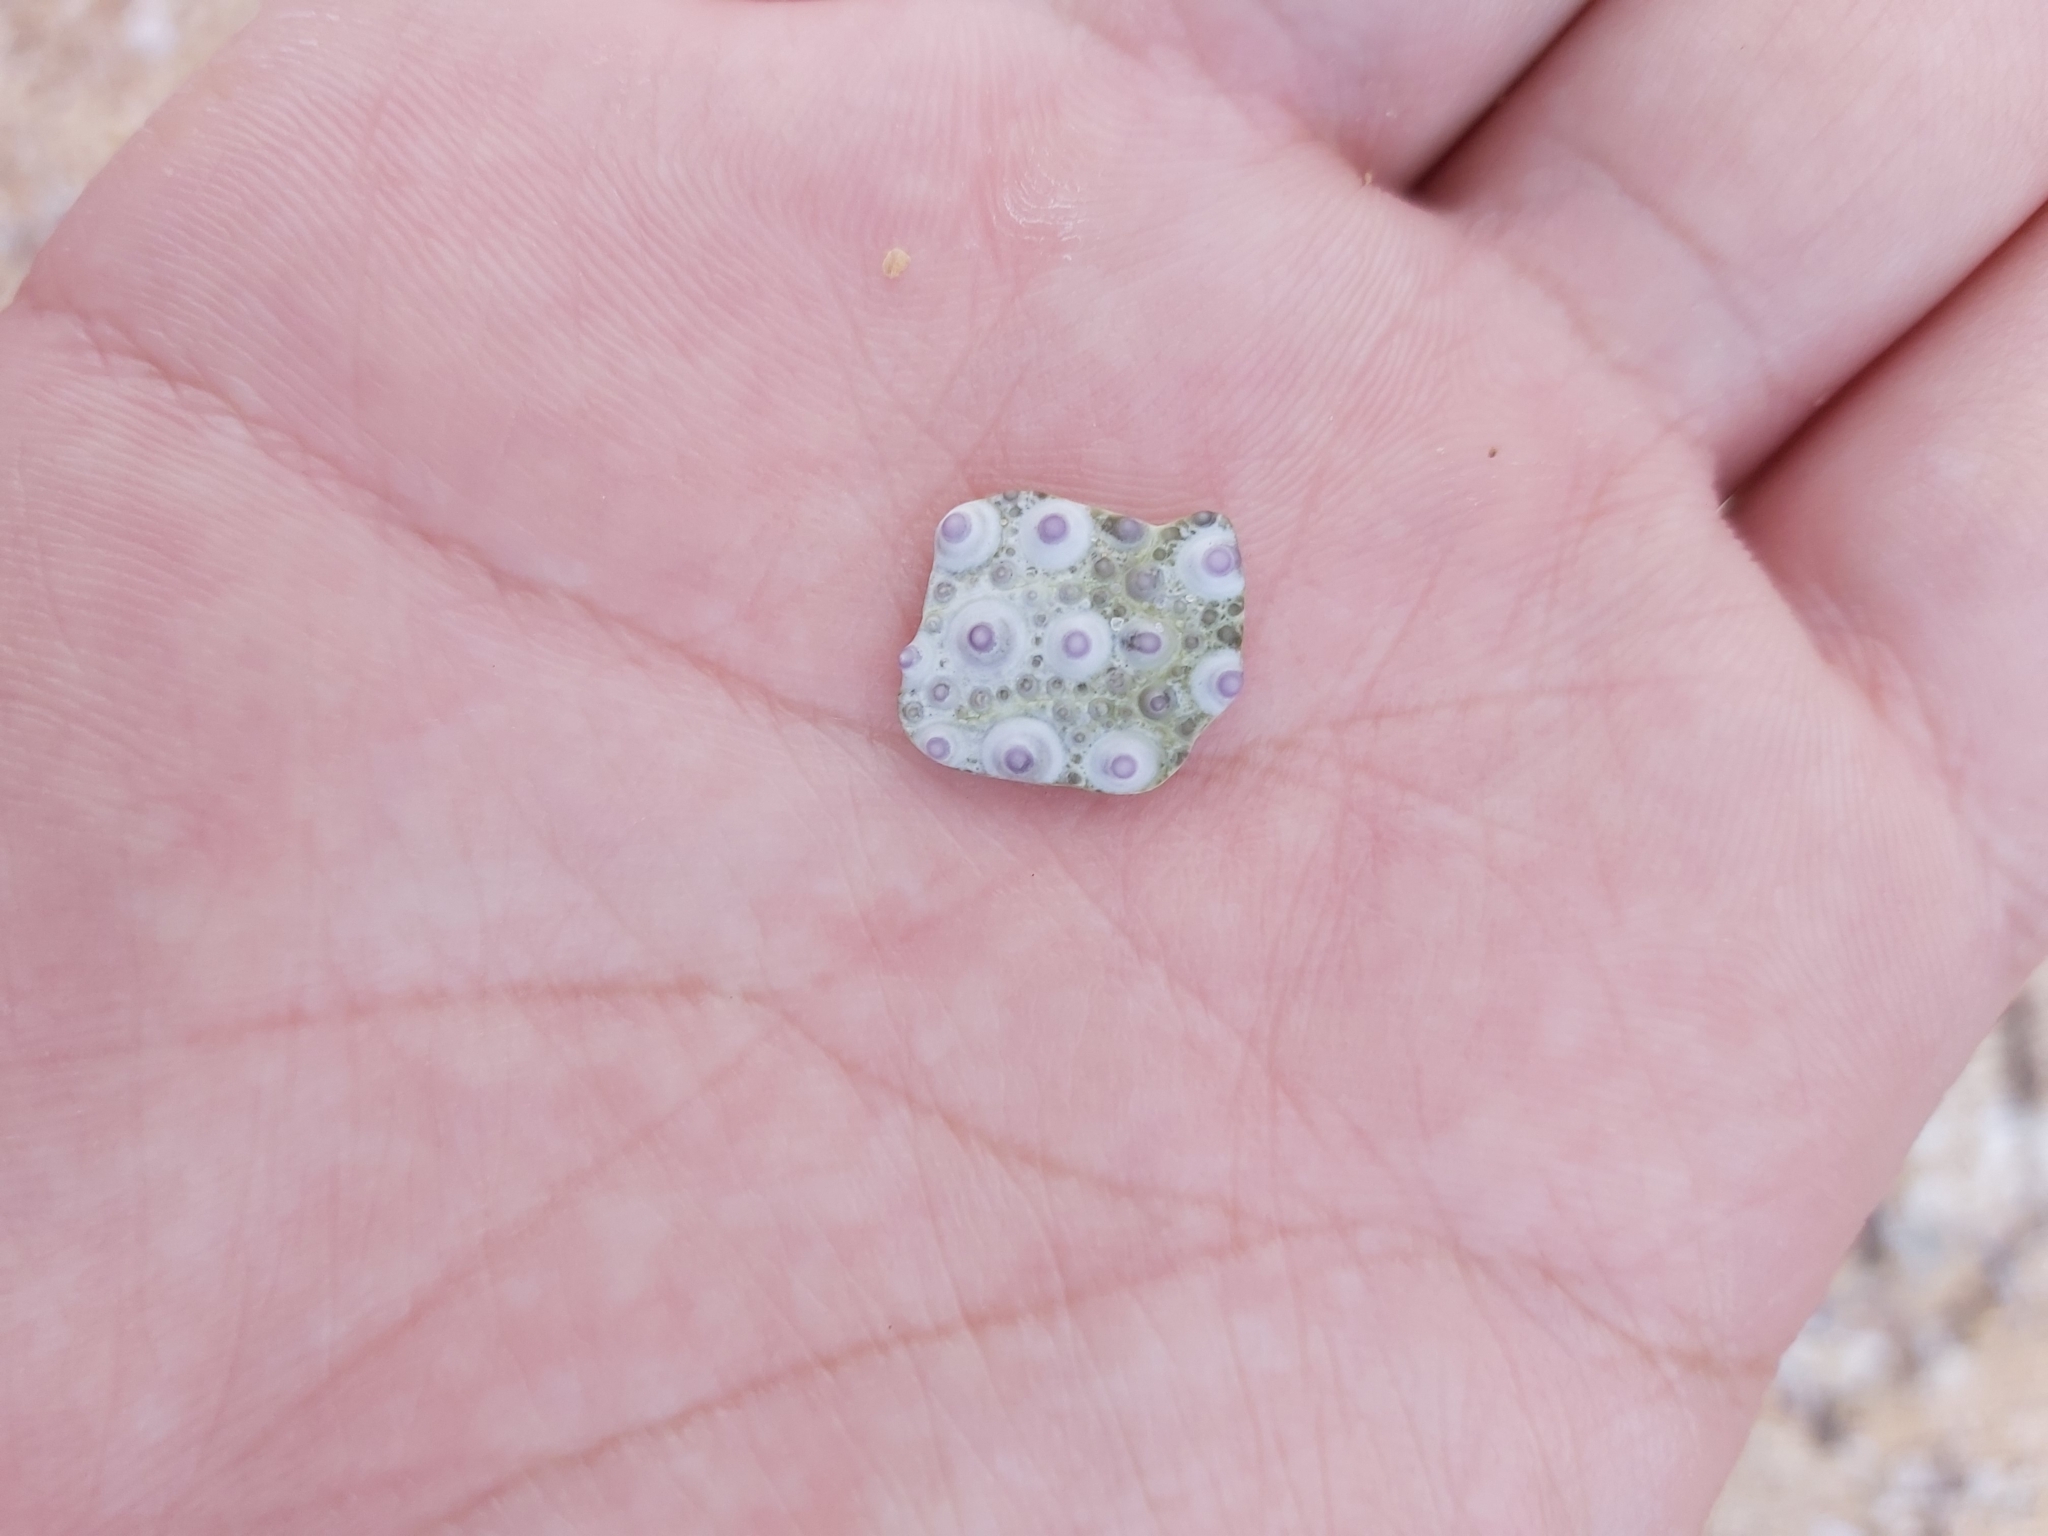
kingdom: Animalia
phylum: Echinodermata
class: Echinoidea
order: Camarodonta
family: Echinometridae
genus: Heliocidaris
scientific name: Heliocidaris erythrogramma
